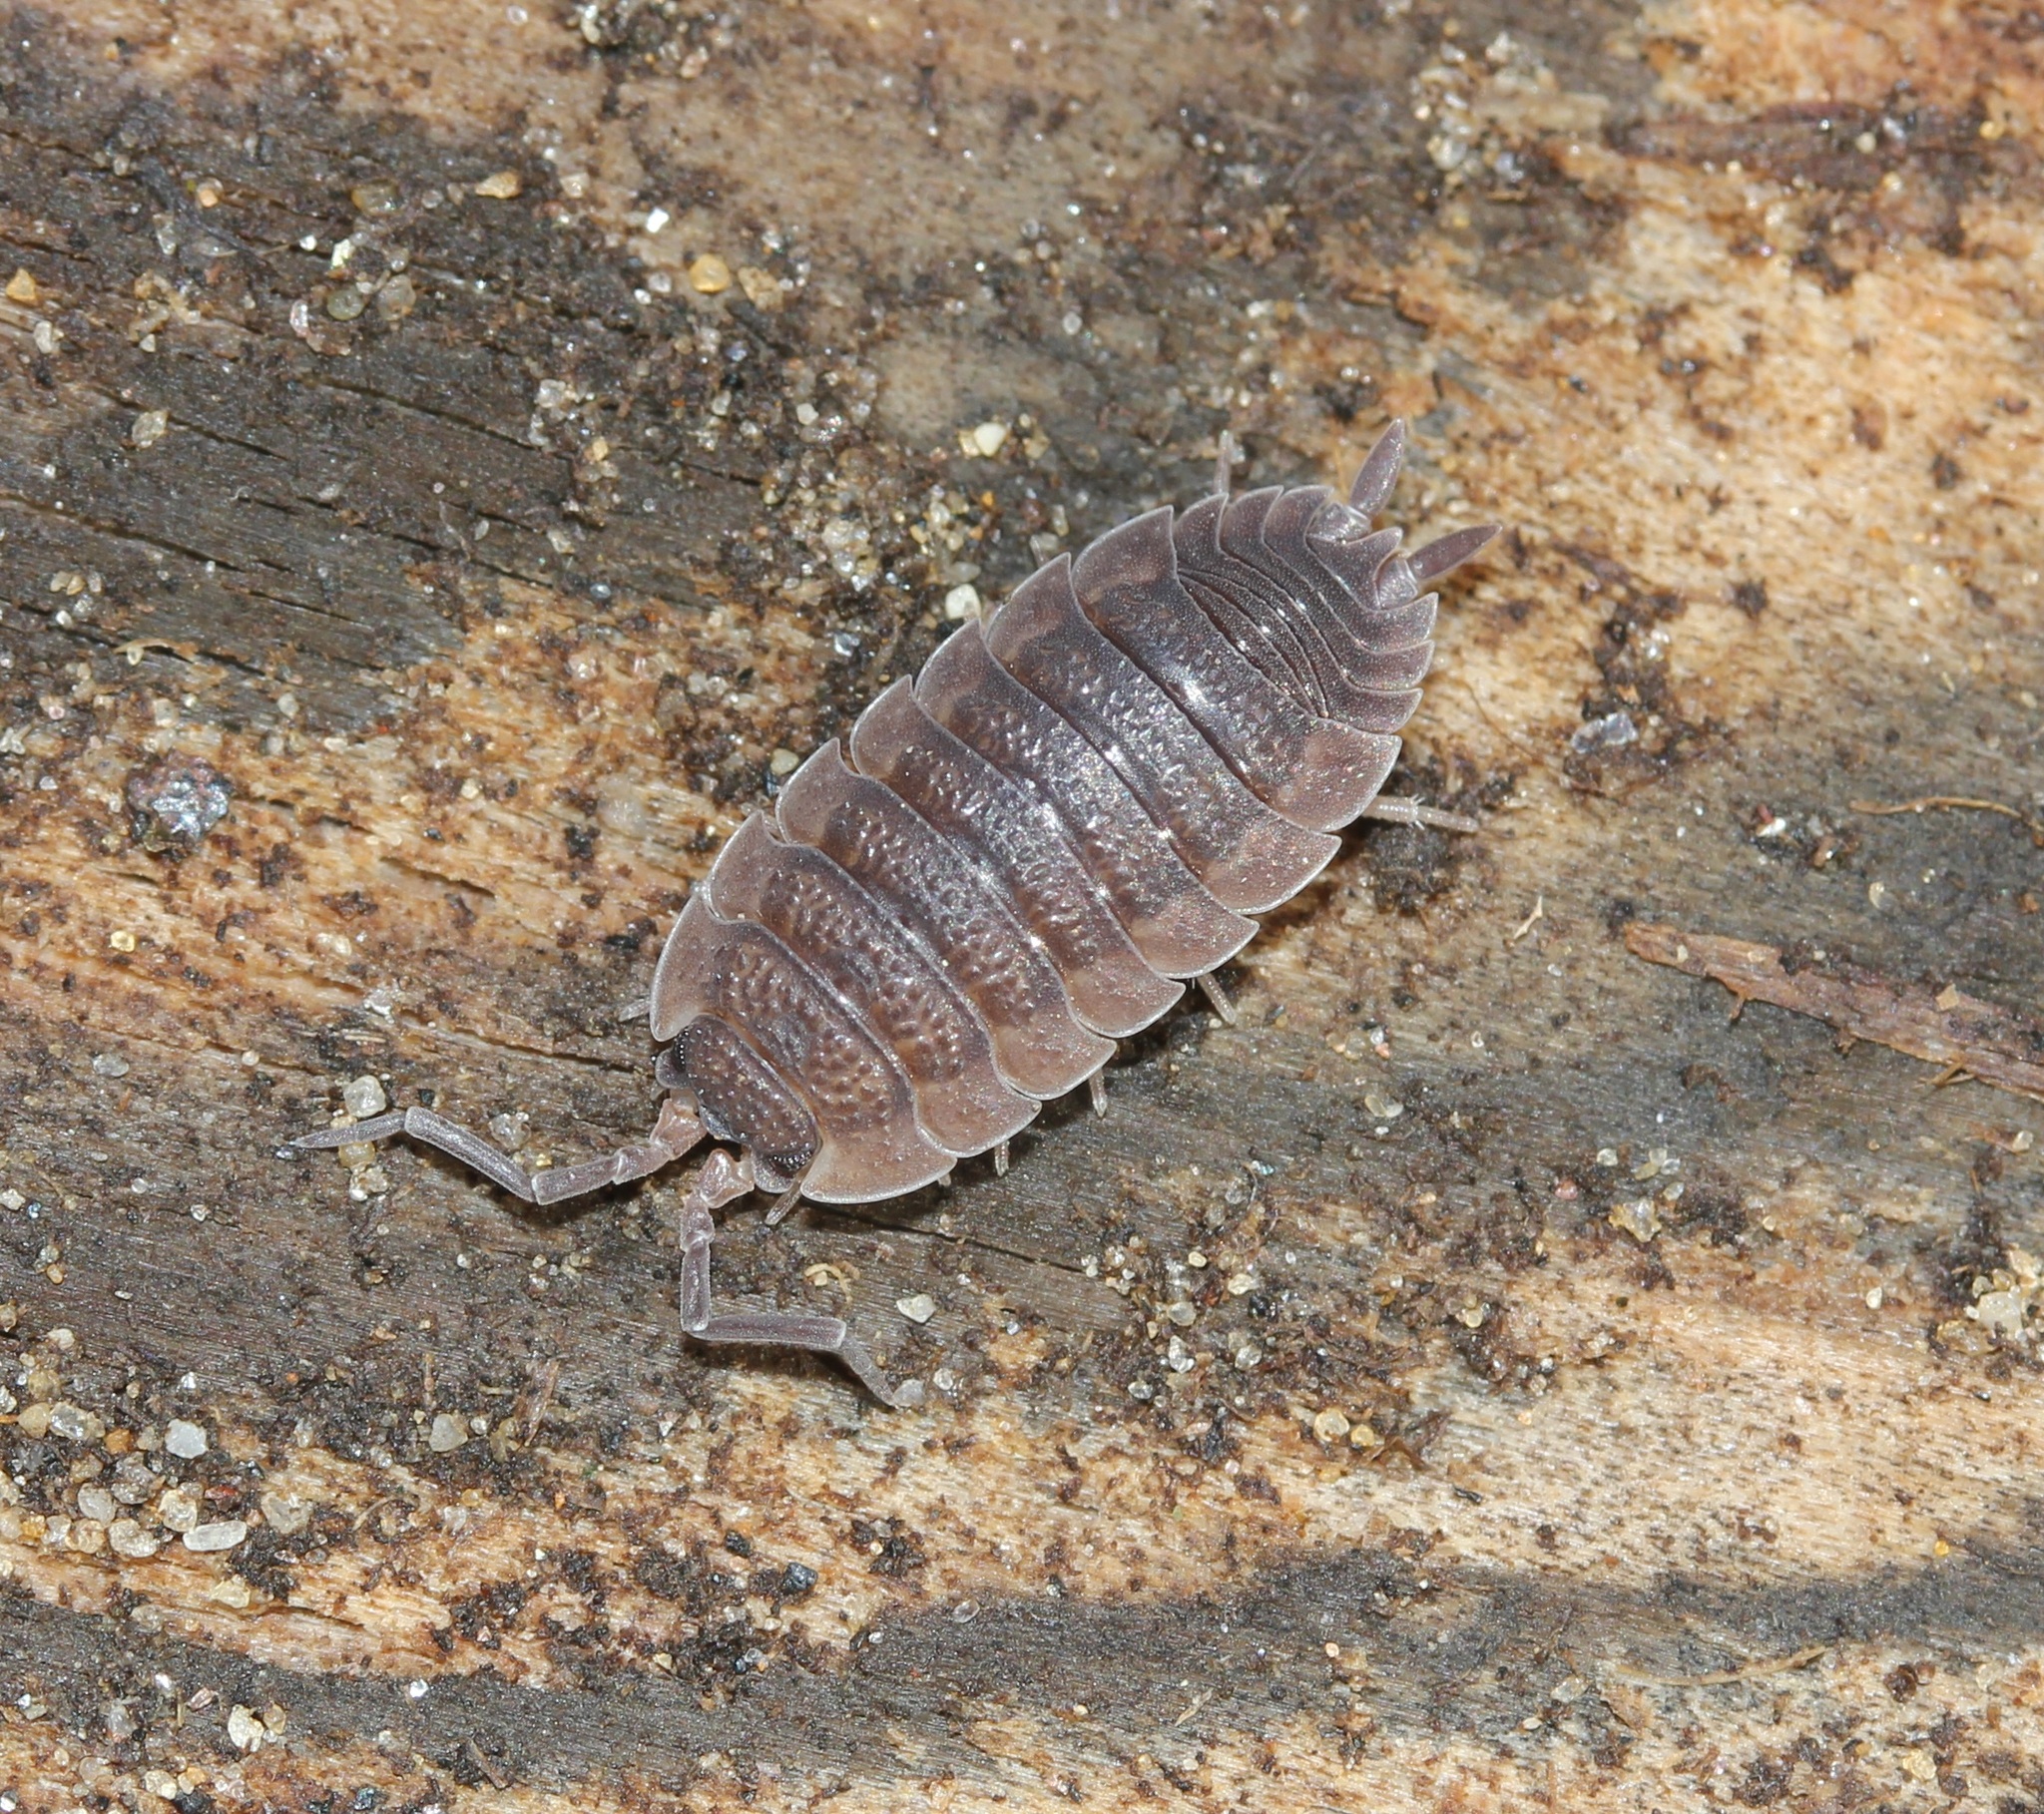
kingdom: Animalia
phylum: Arthropoda
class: Malacostraca
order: Isopoda
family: Porcellionidae
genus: Porcellio
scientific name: Porcellio scaber
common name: Common rough woodlouse
